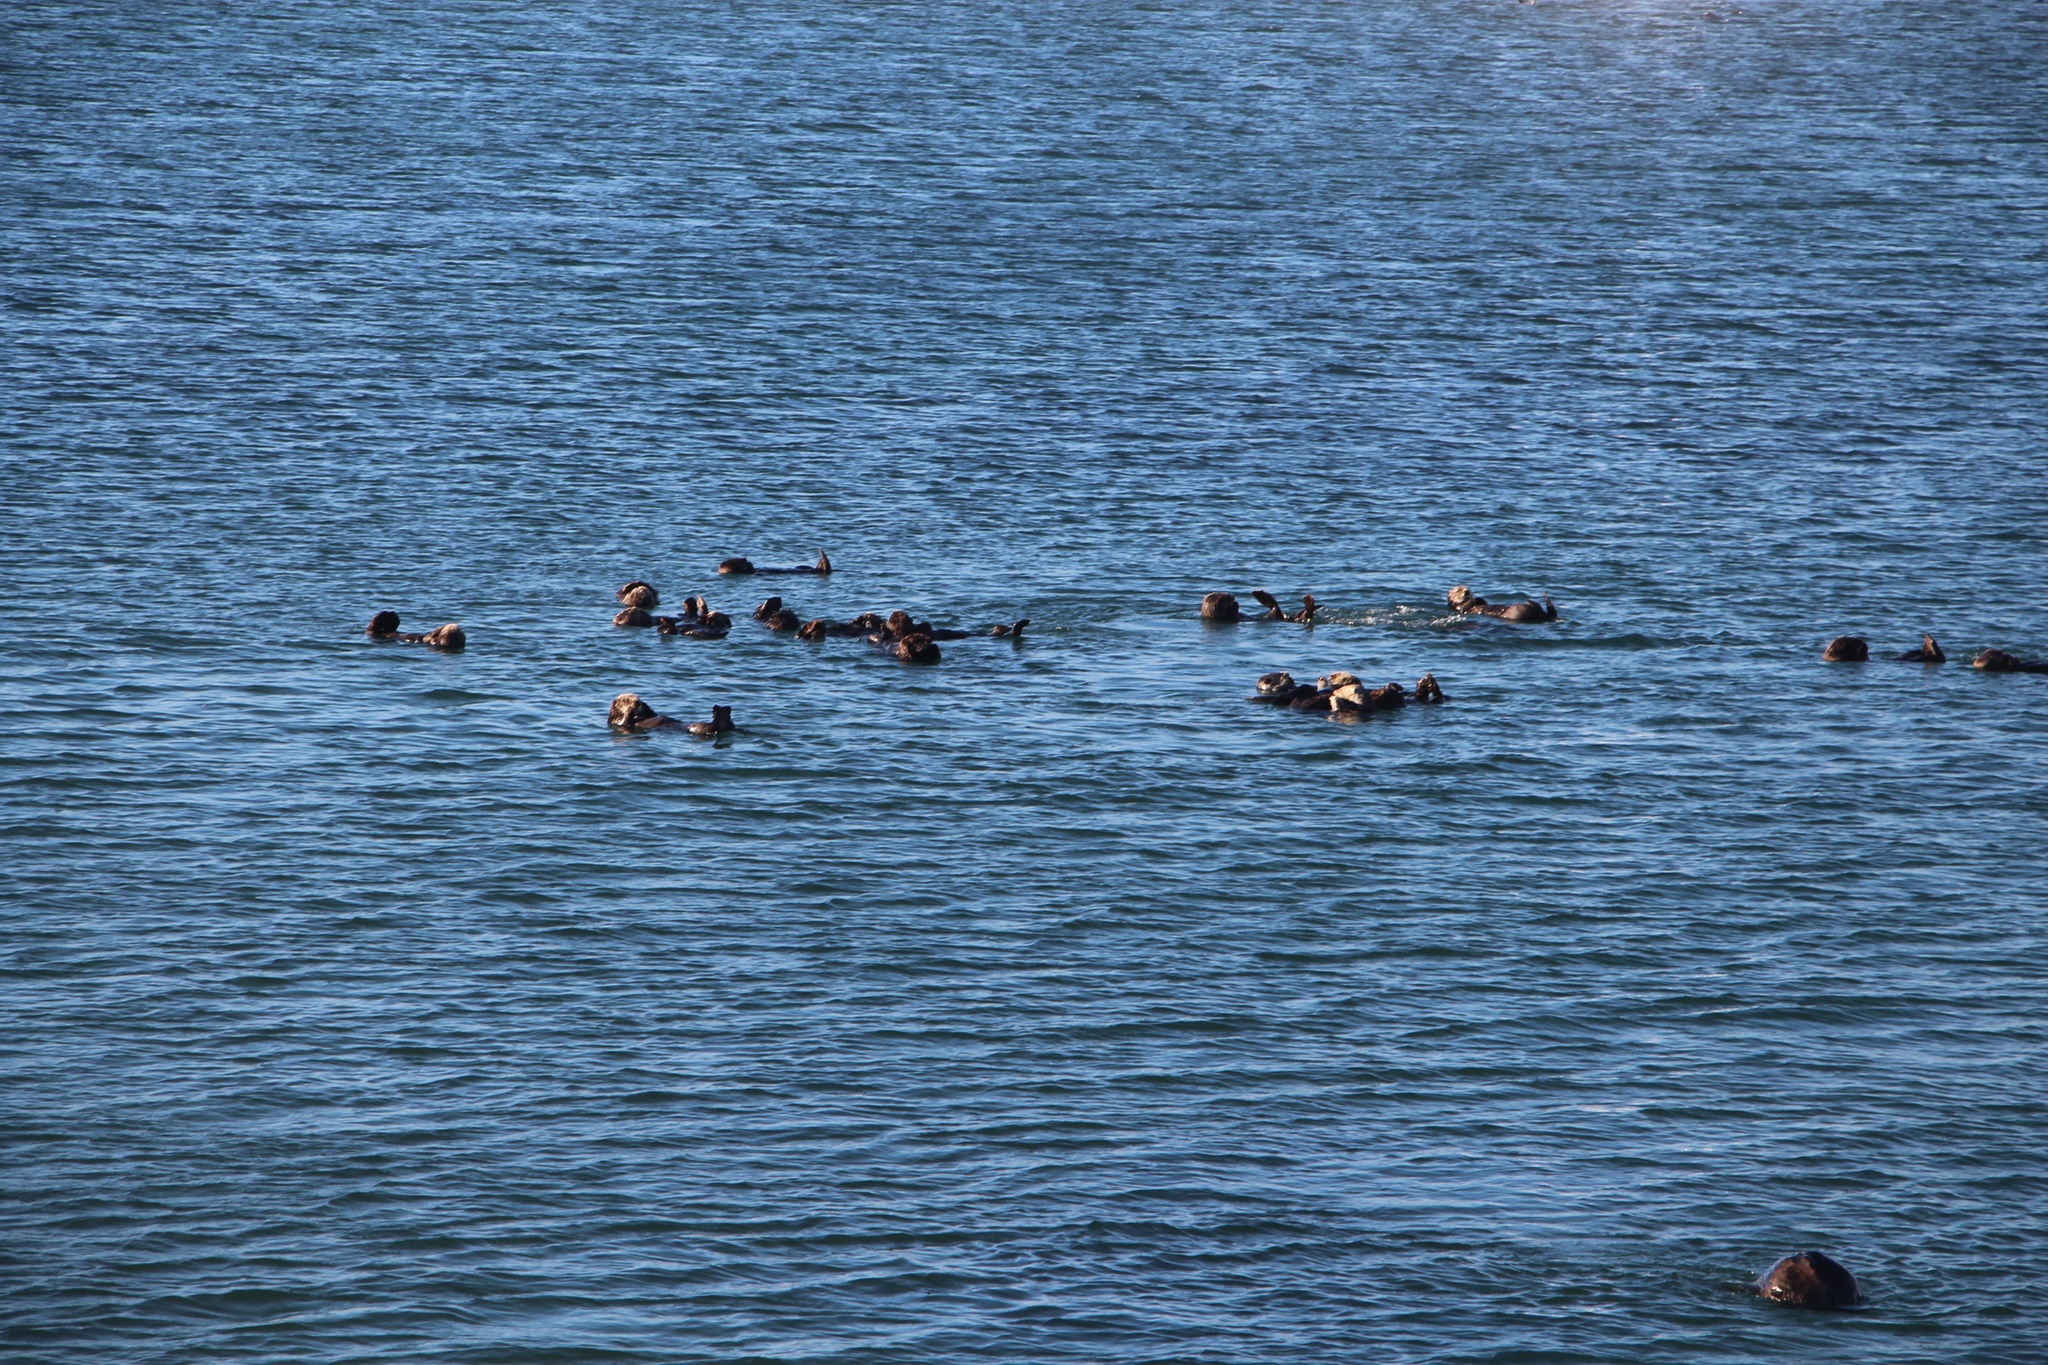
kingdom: Animalia
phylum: Chordata
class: Mammalia
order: Carnivora
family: Mustelidae
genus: Enhydra
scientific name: Enhydra lutris
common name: Sea otter
